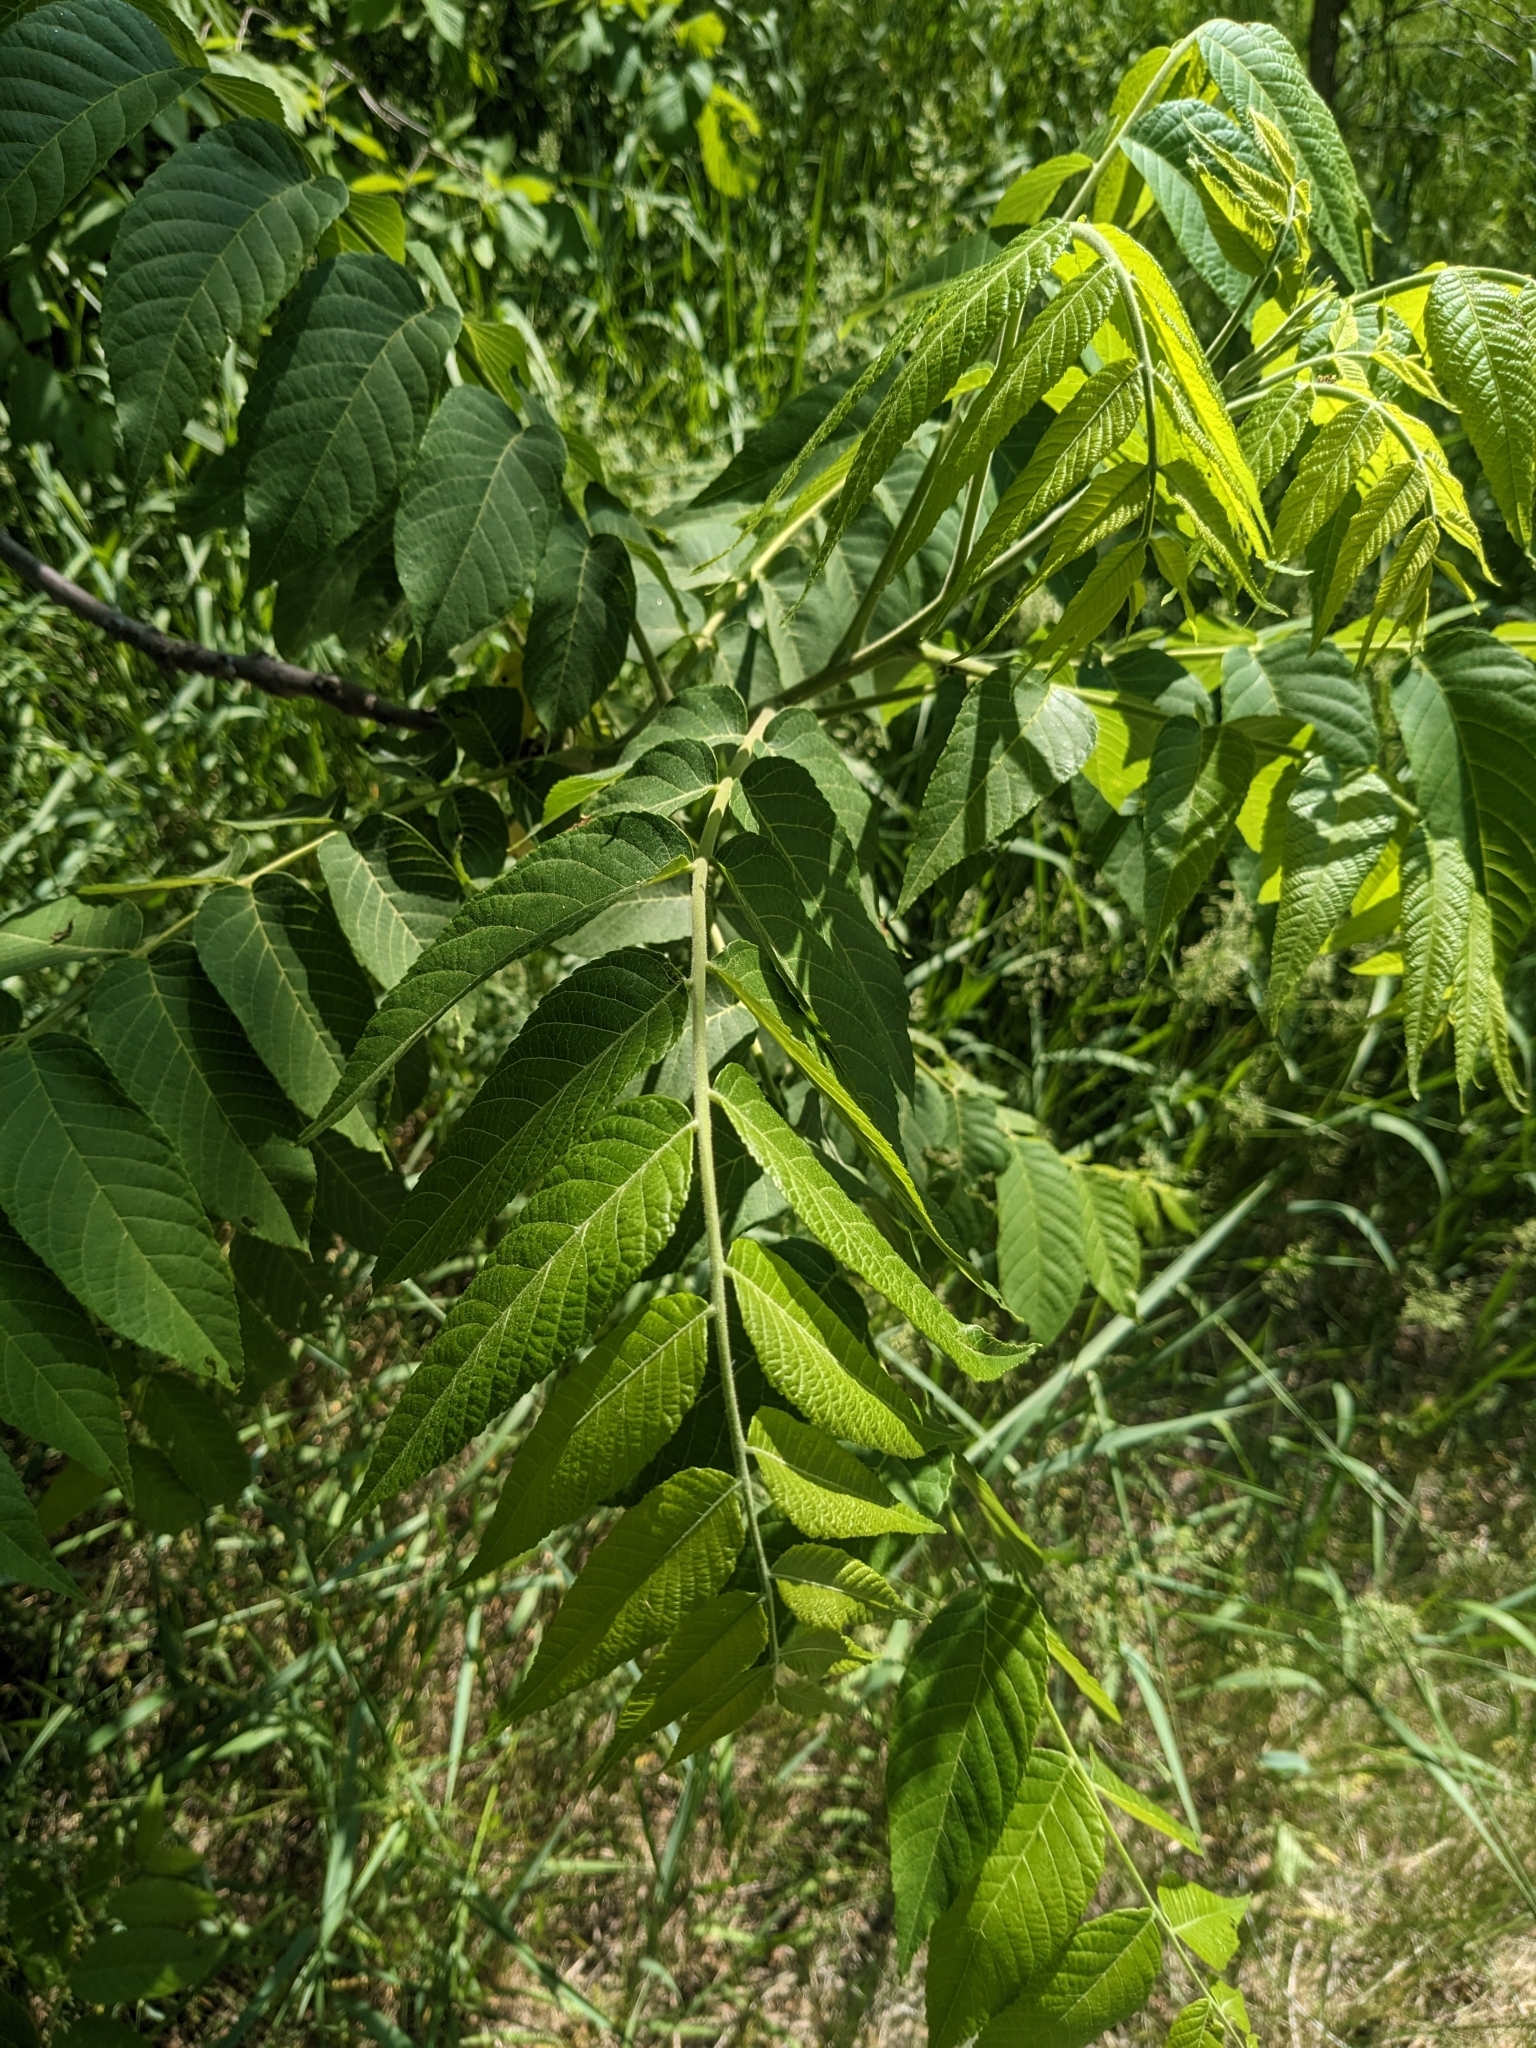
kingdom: Plantae
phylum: Tracheophyta
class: Magnoliopsida
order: Fagales
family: Juglandaceae
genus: Juglans
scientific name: Juglans nigra
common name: Black walnut
